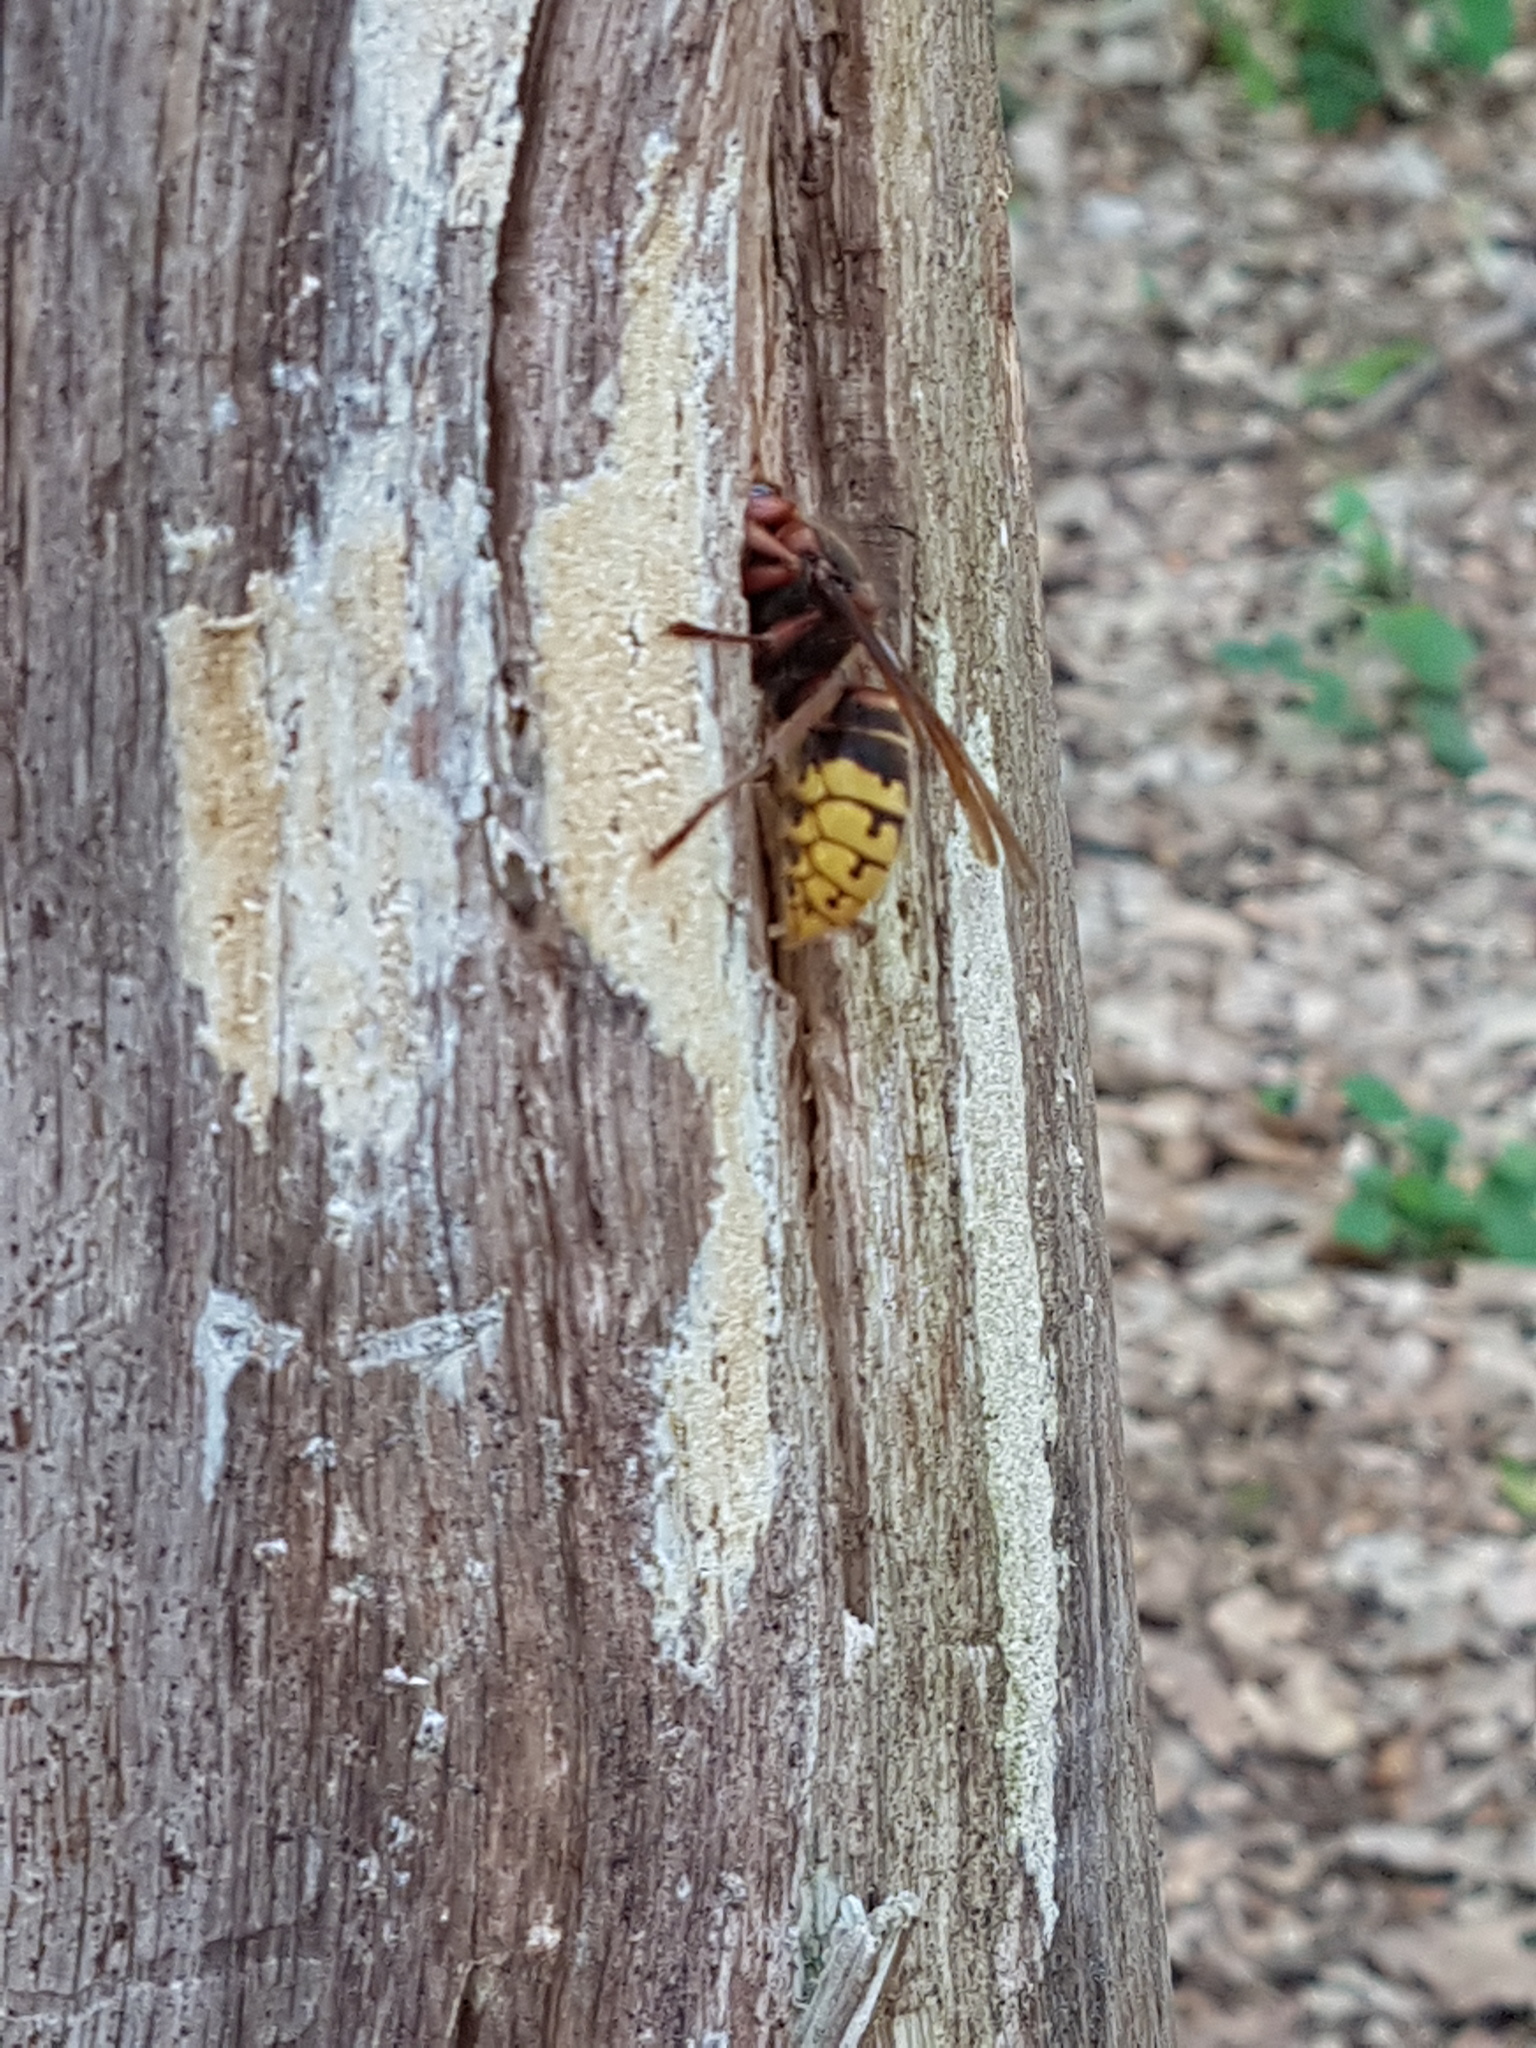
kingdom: Animalia
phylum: Arthropoda
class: Insecta
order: Hymenoptera
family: Vespidae
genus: Vespa
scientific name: Vespa crabro
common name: Hornet
